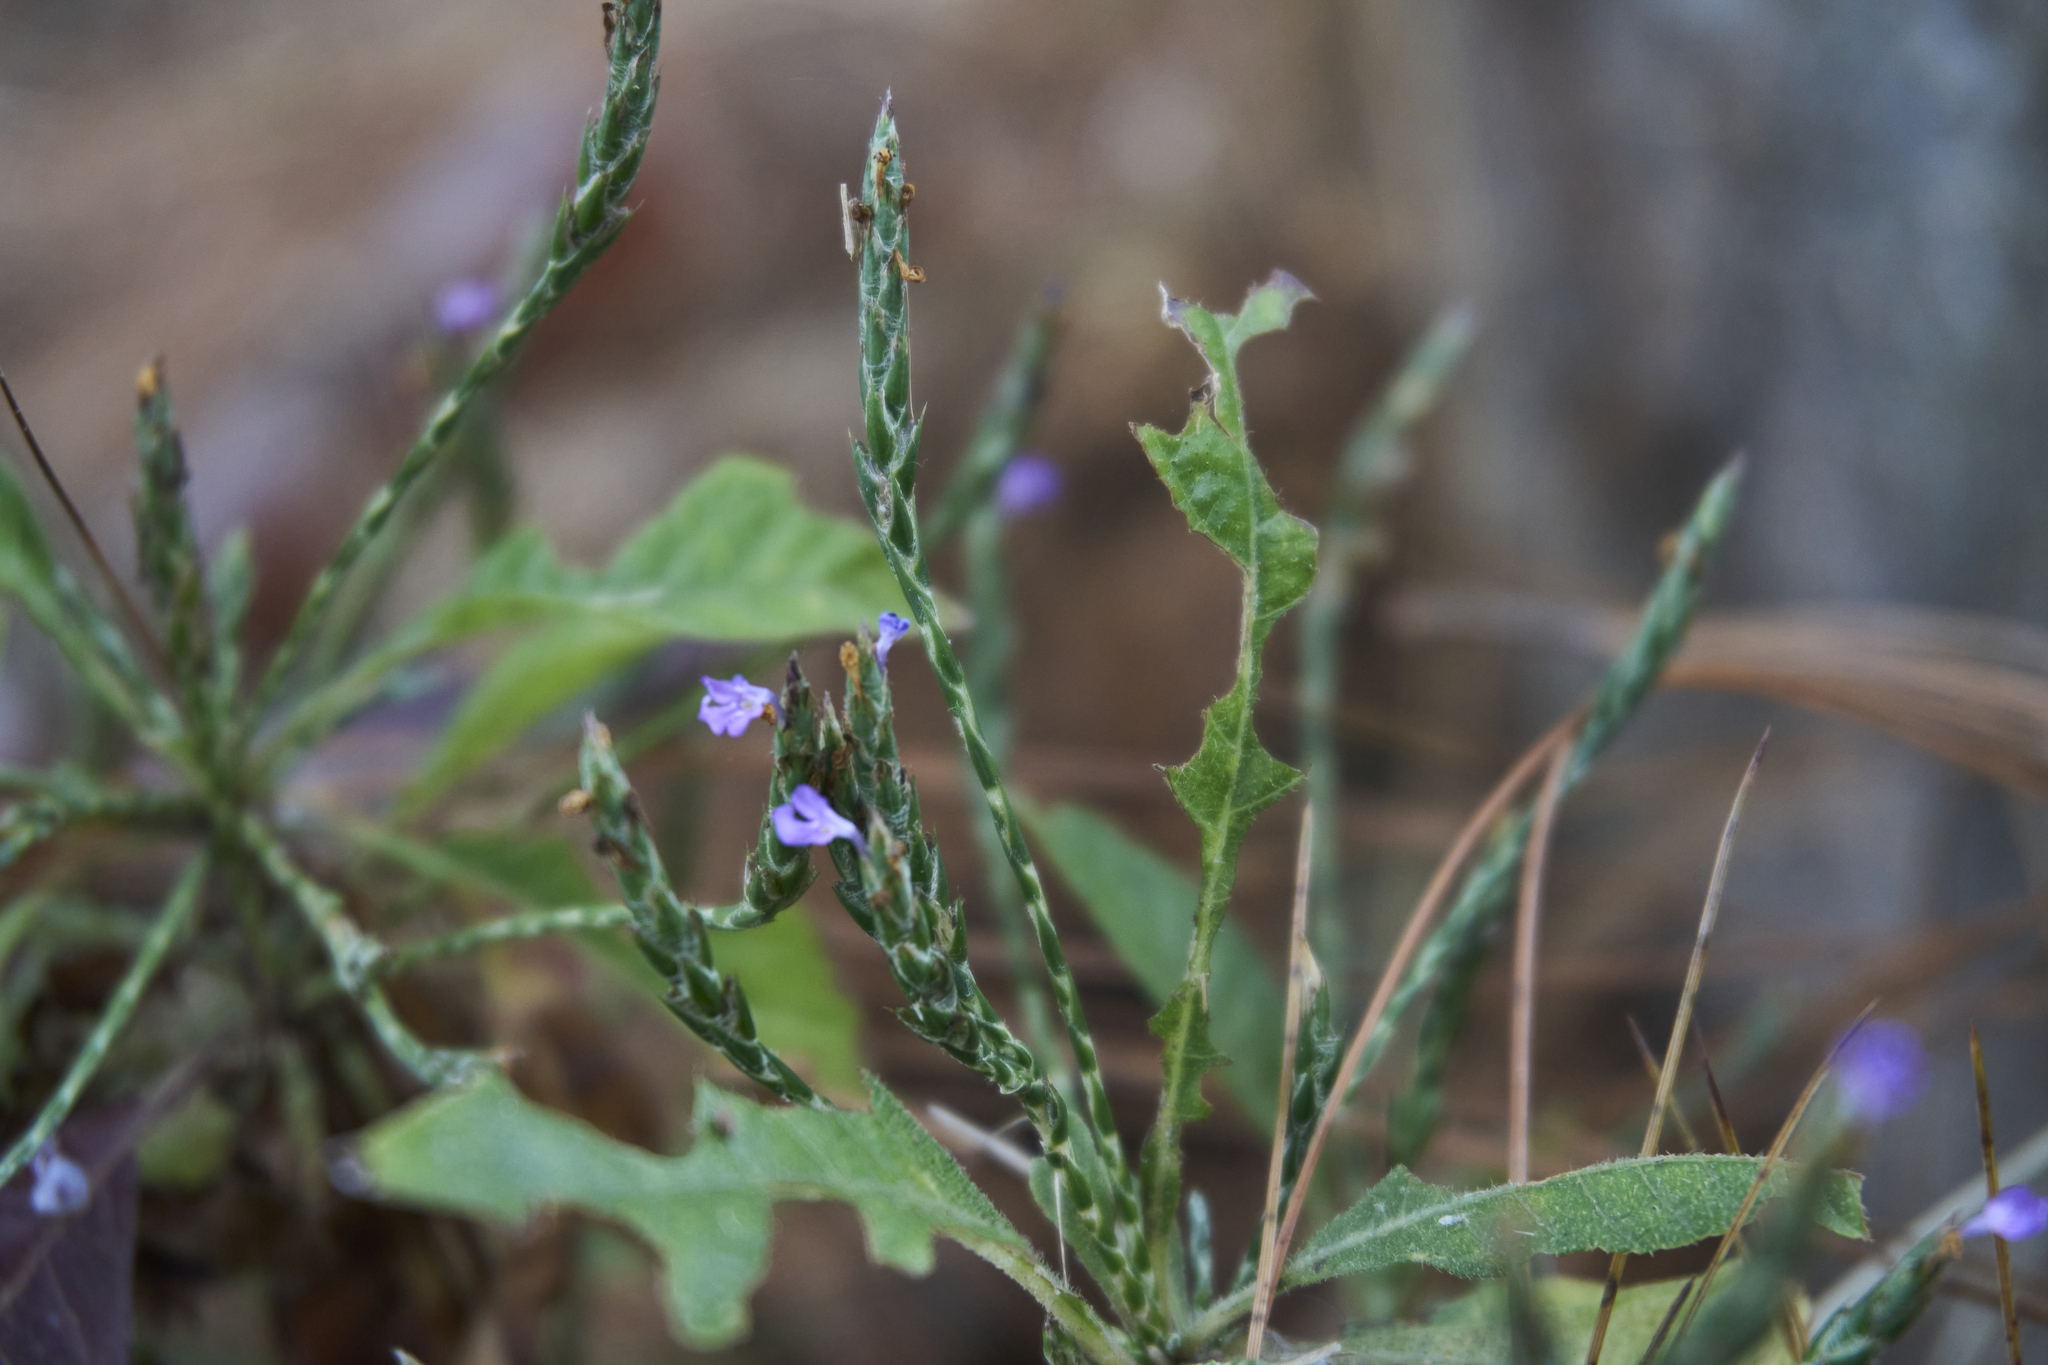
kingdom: Plantae
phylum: Tracheophyta
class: Magnoliopsida
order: Lamiales
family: Acanthaceae
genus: Elytraria
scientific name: Elytraria imbricata
